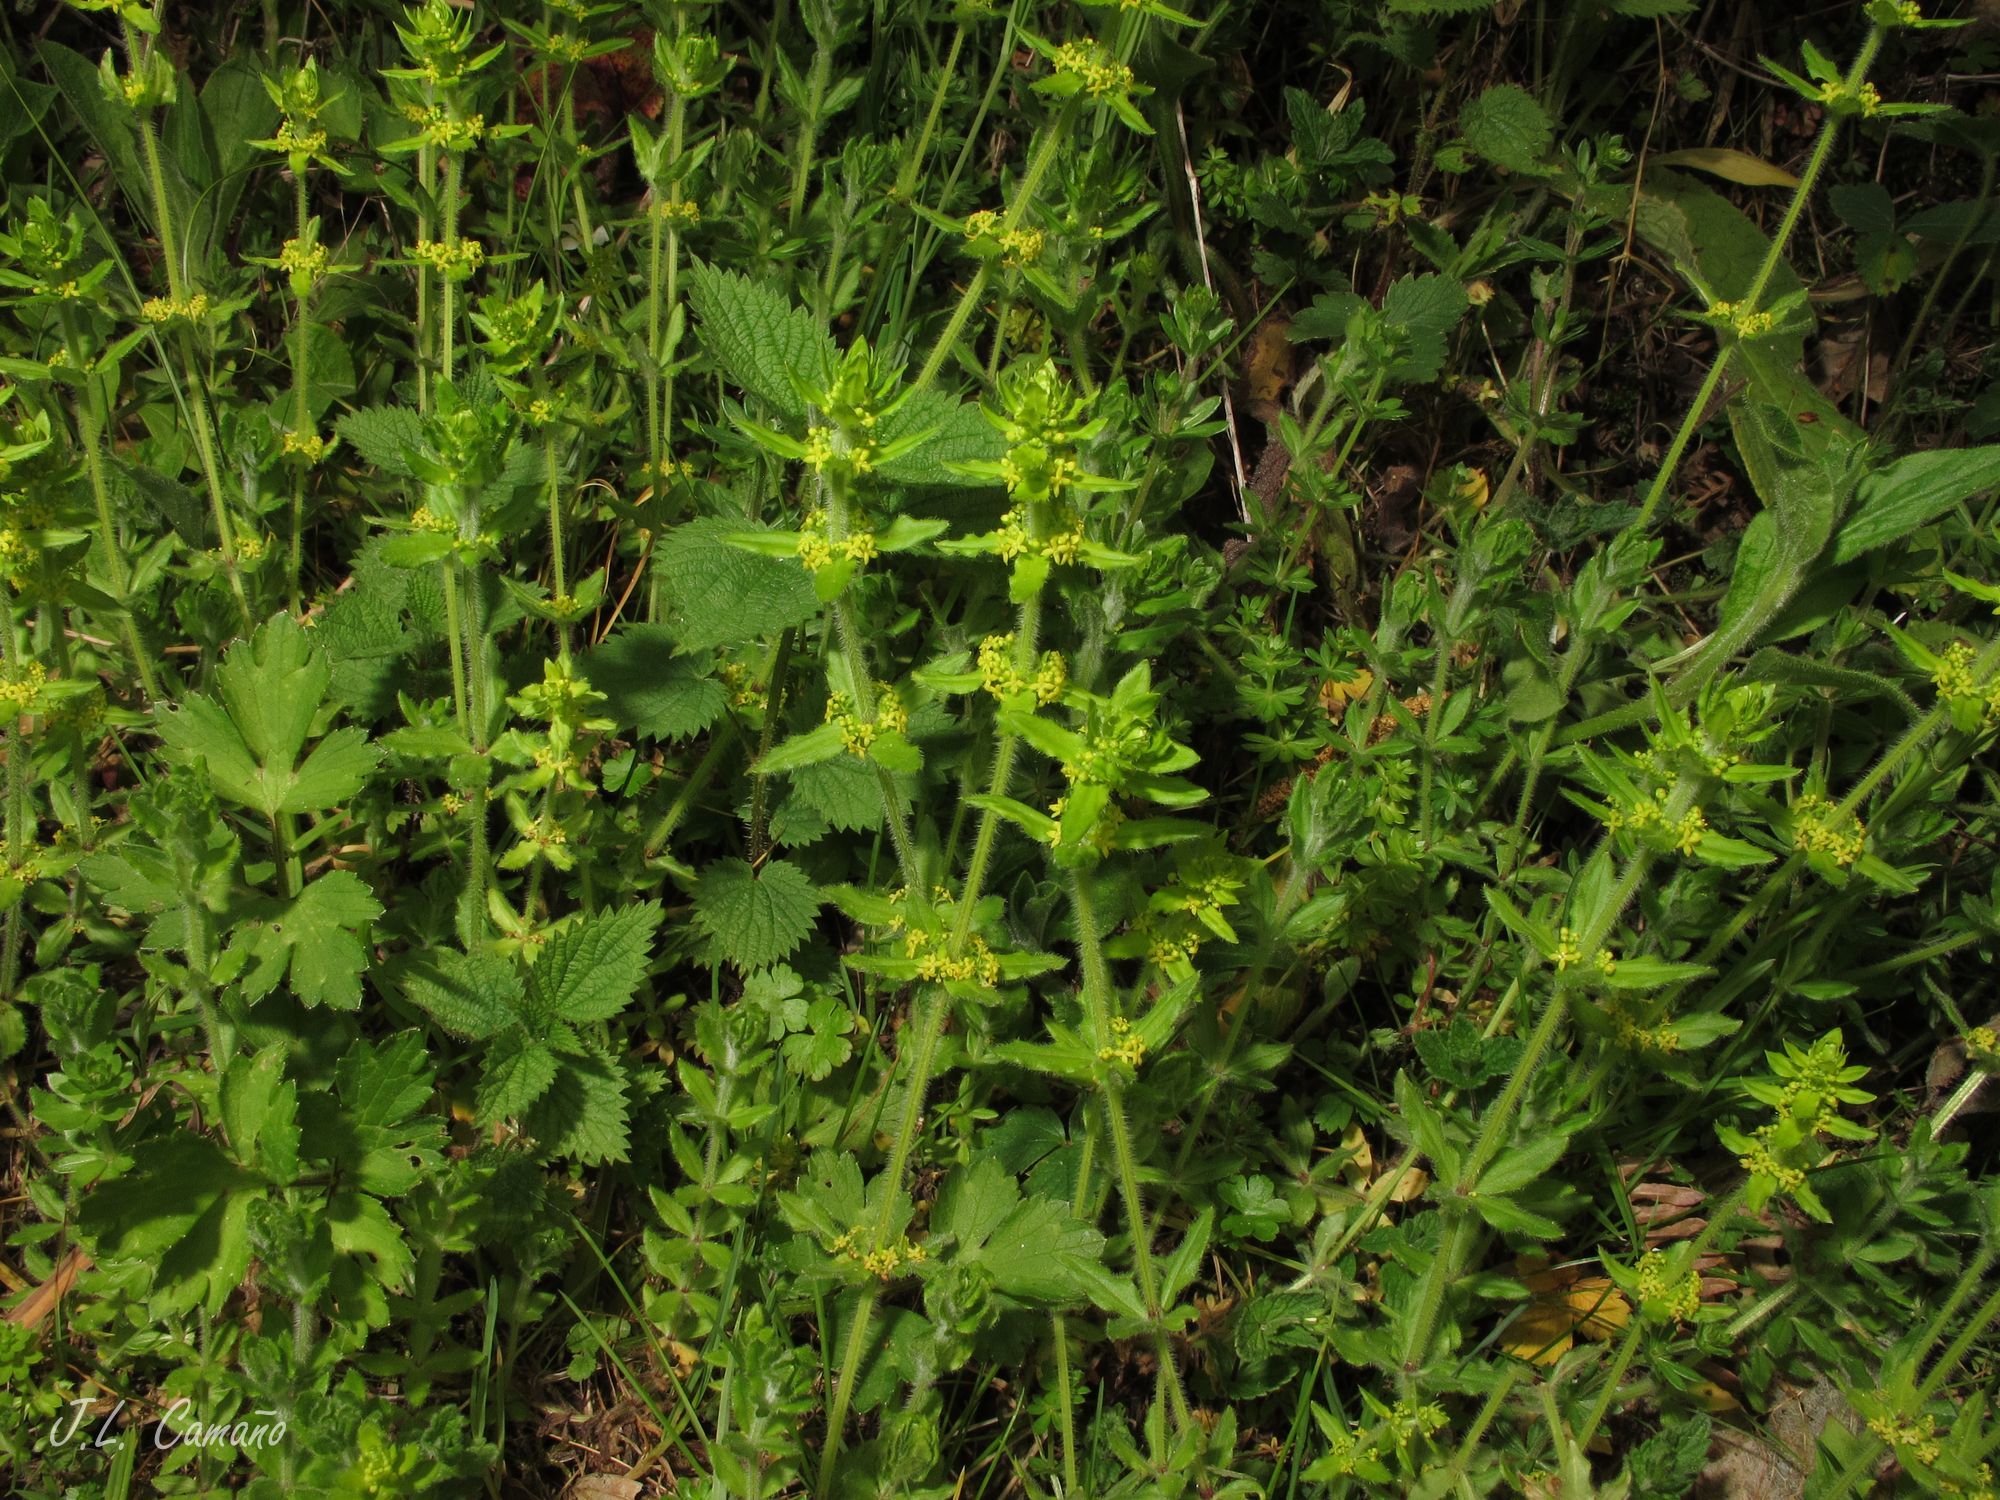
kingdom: Plantae
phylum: Tracheophyta
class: Magnoliopsida
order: Gentianales
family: Rubiaceae
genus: Cruciata
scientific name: Cruciata laevipes
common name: Crosswort
